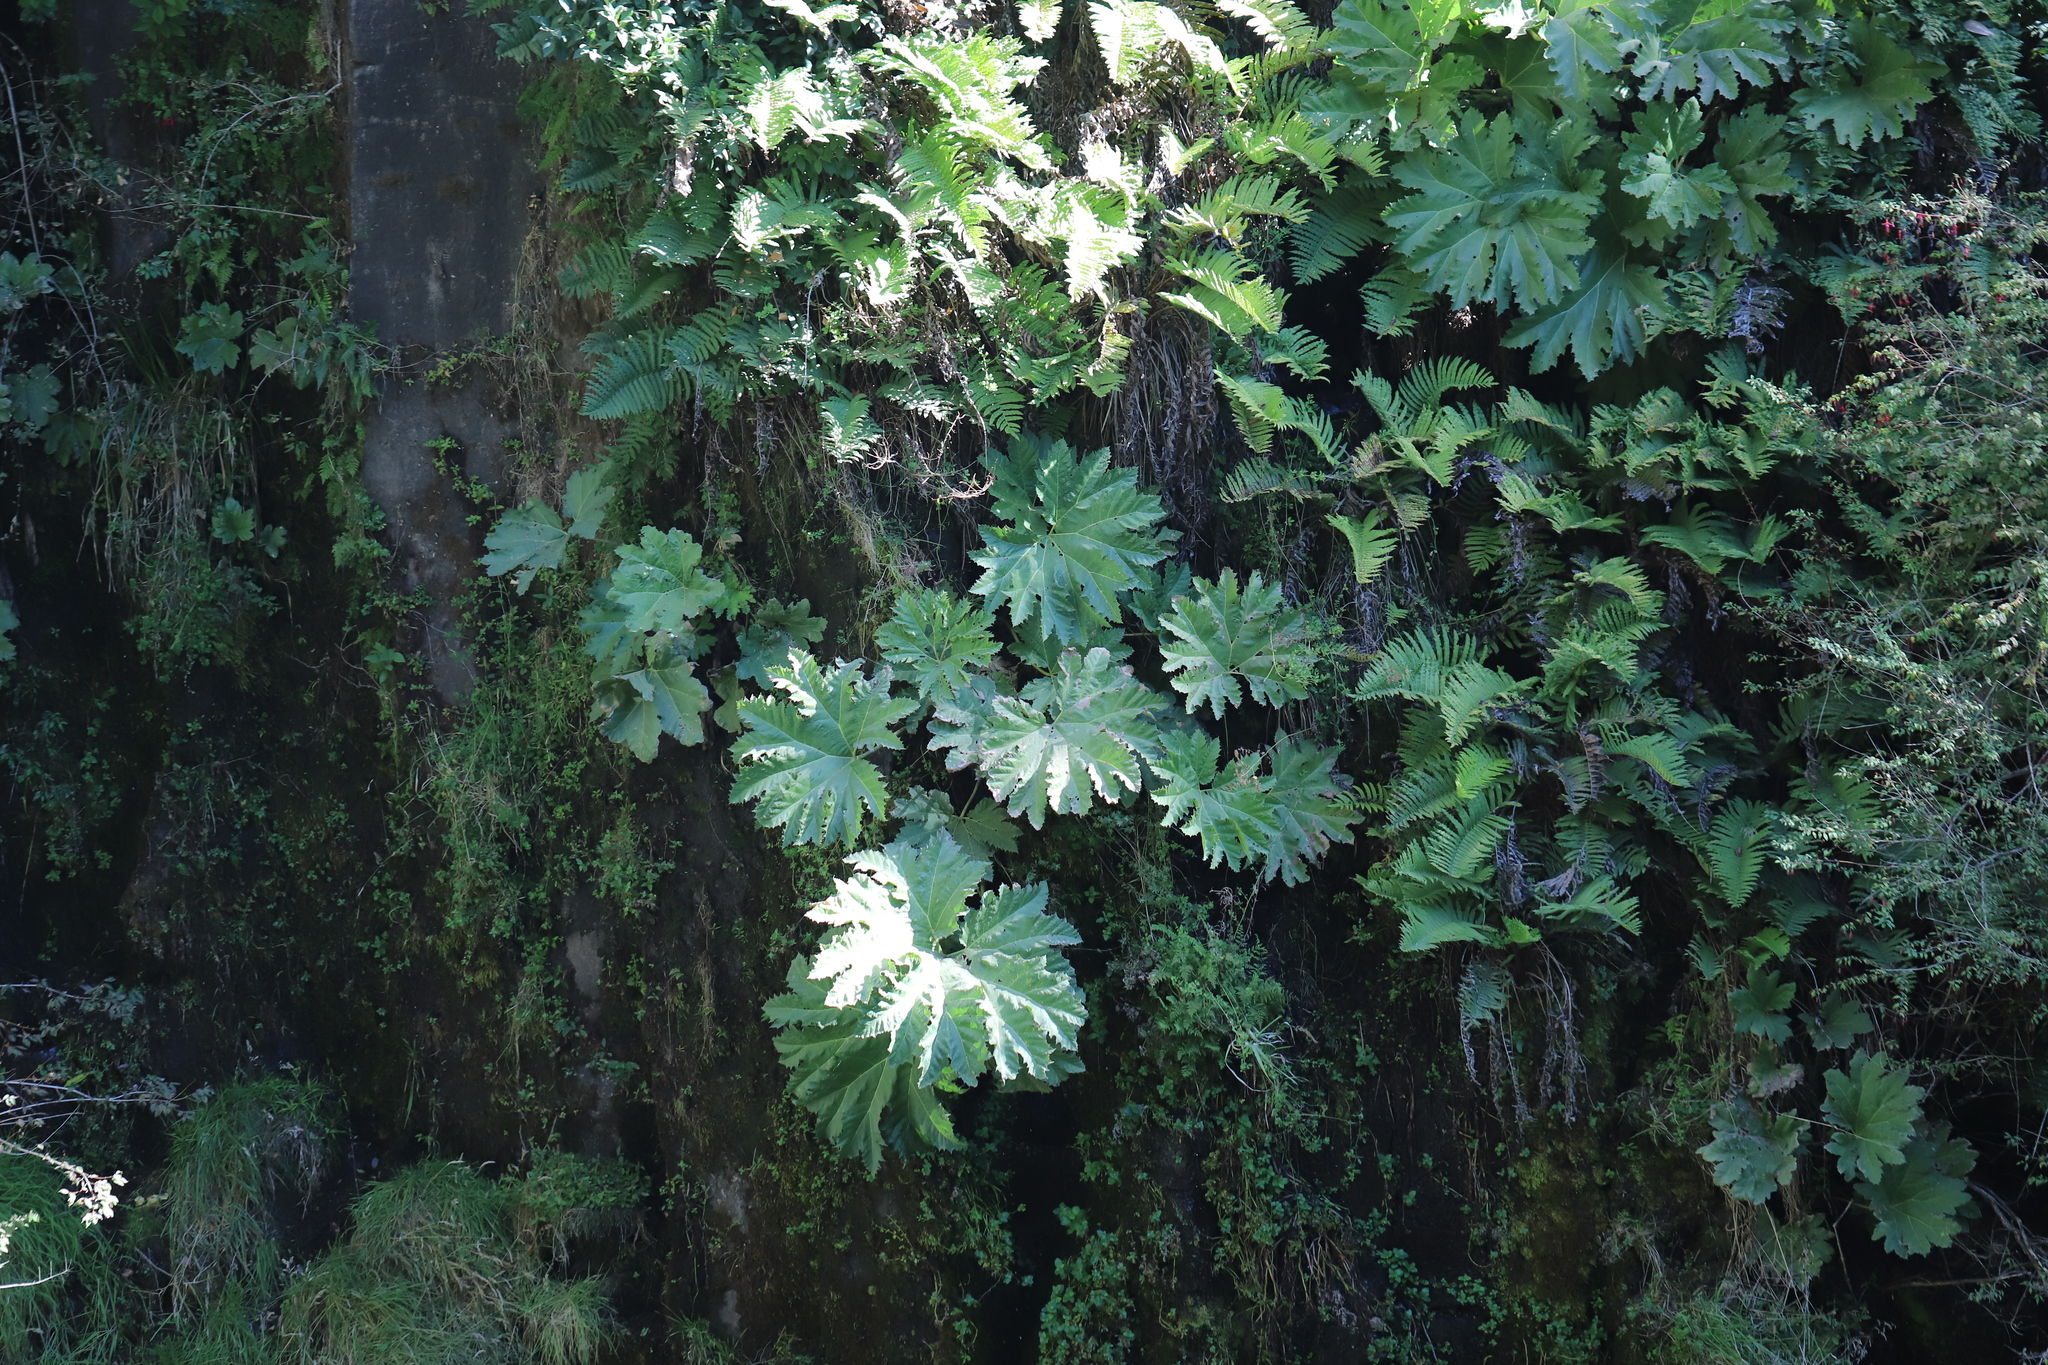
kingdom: Plantae
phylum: Tracheophyta
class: Magnoliopsida
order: Gunnerales
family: Gunneraceae
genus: Gunnera
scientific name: Gunnera tinctoria
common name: Giant-rhubarb
